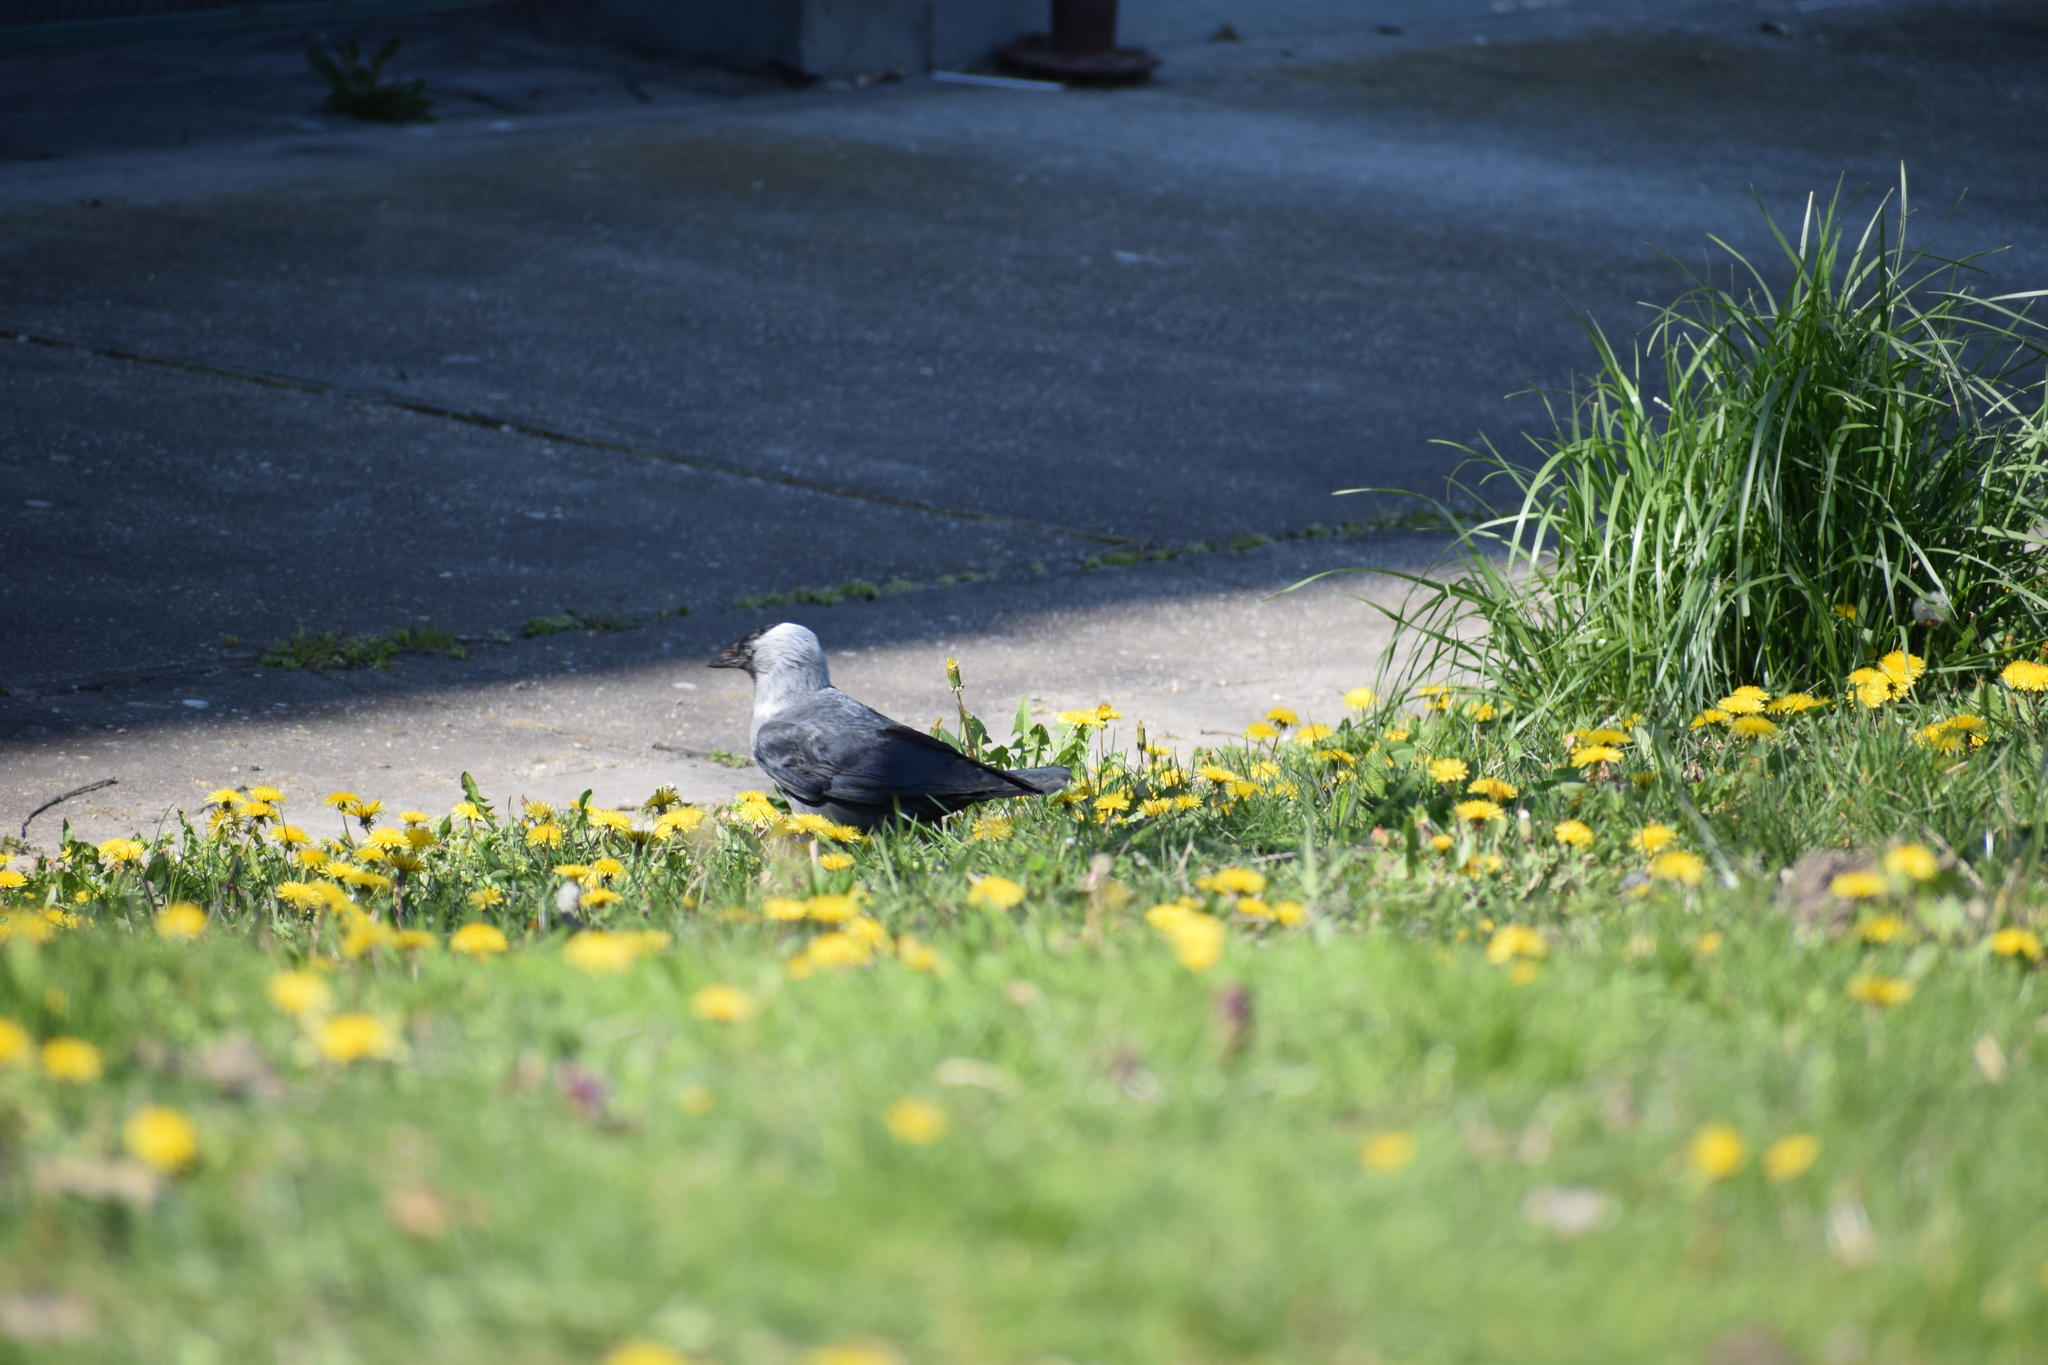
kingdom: Animalia
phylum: Chordata
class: Aves
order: Passeriformes
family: Corvidae
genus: Coloeus
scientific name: Coloeus monedula
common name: Western jackdaw
